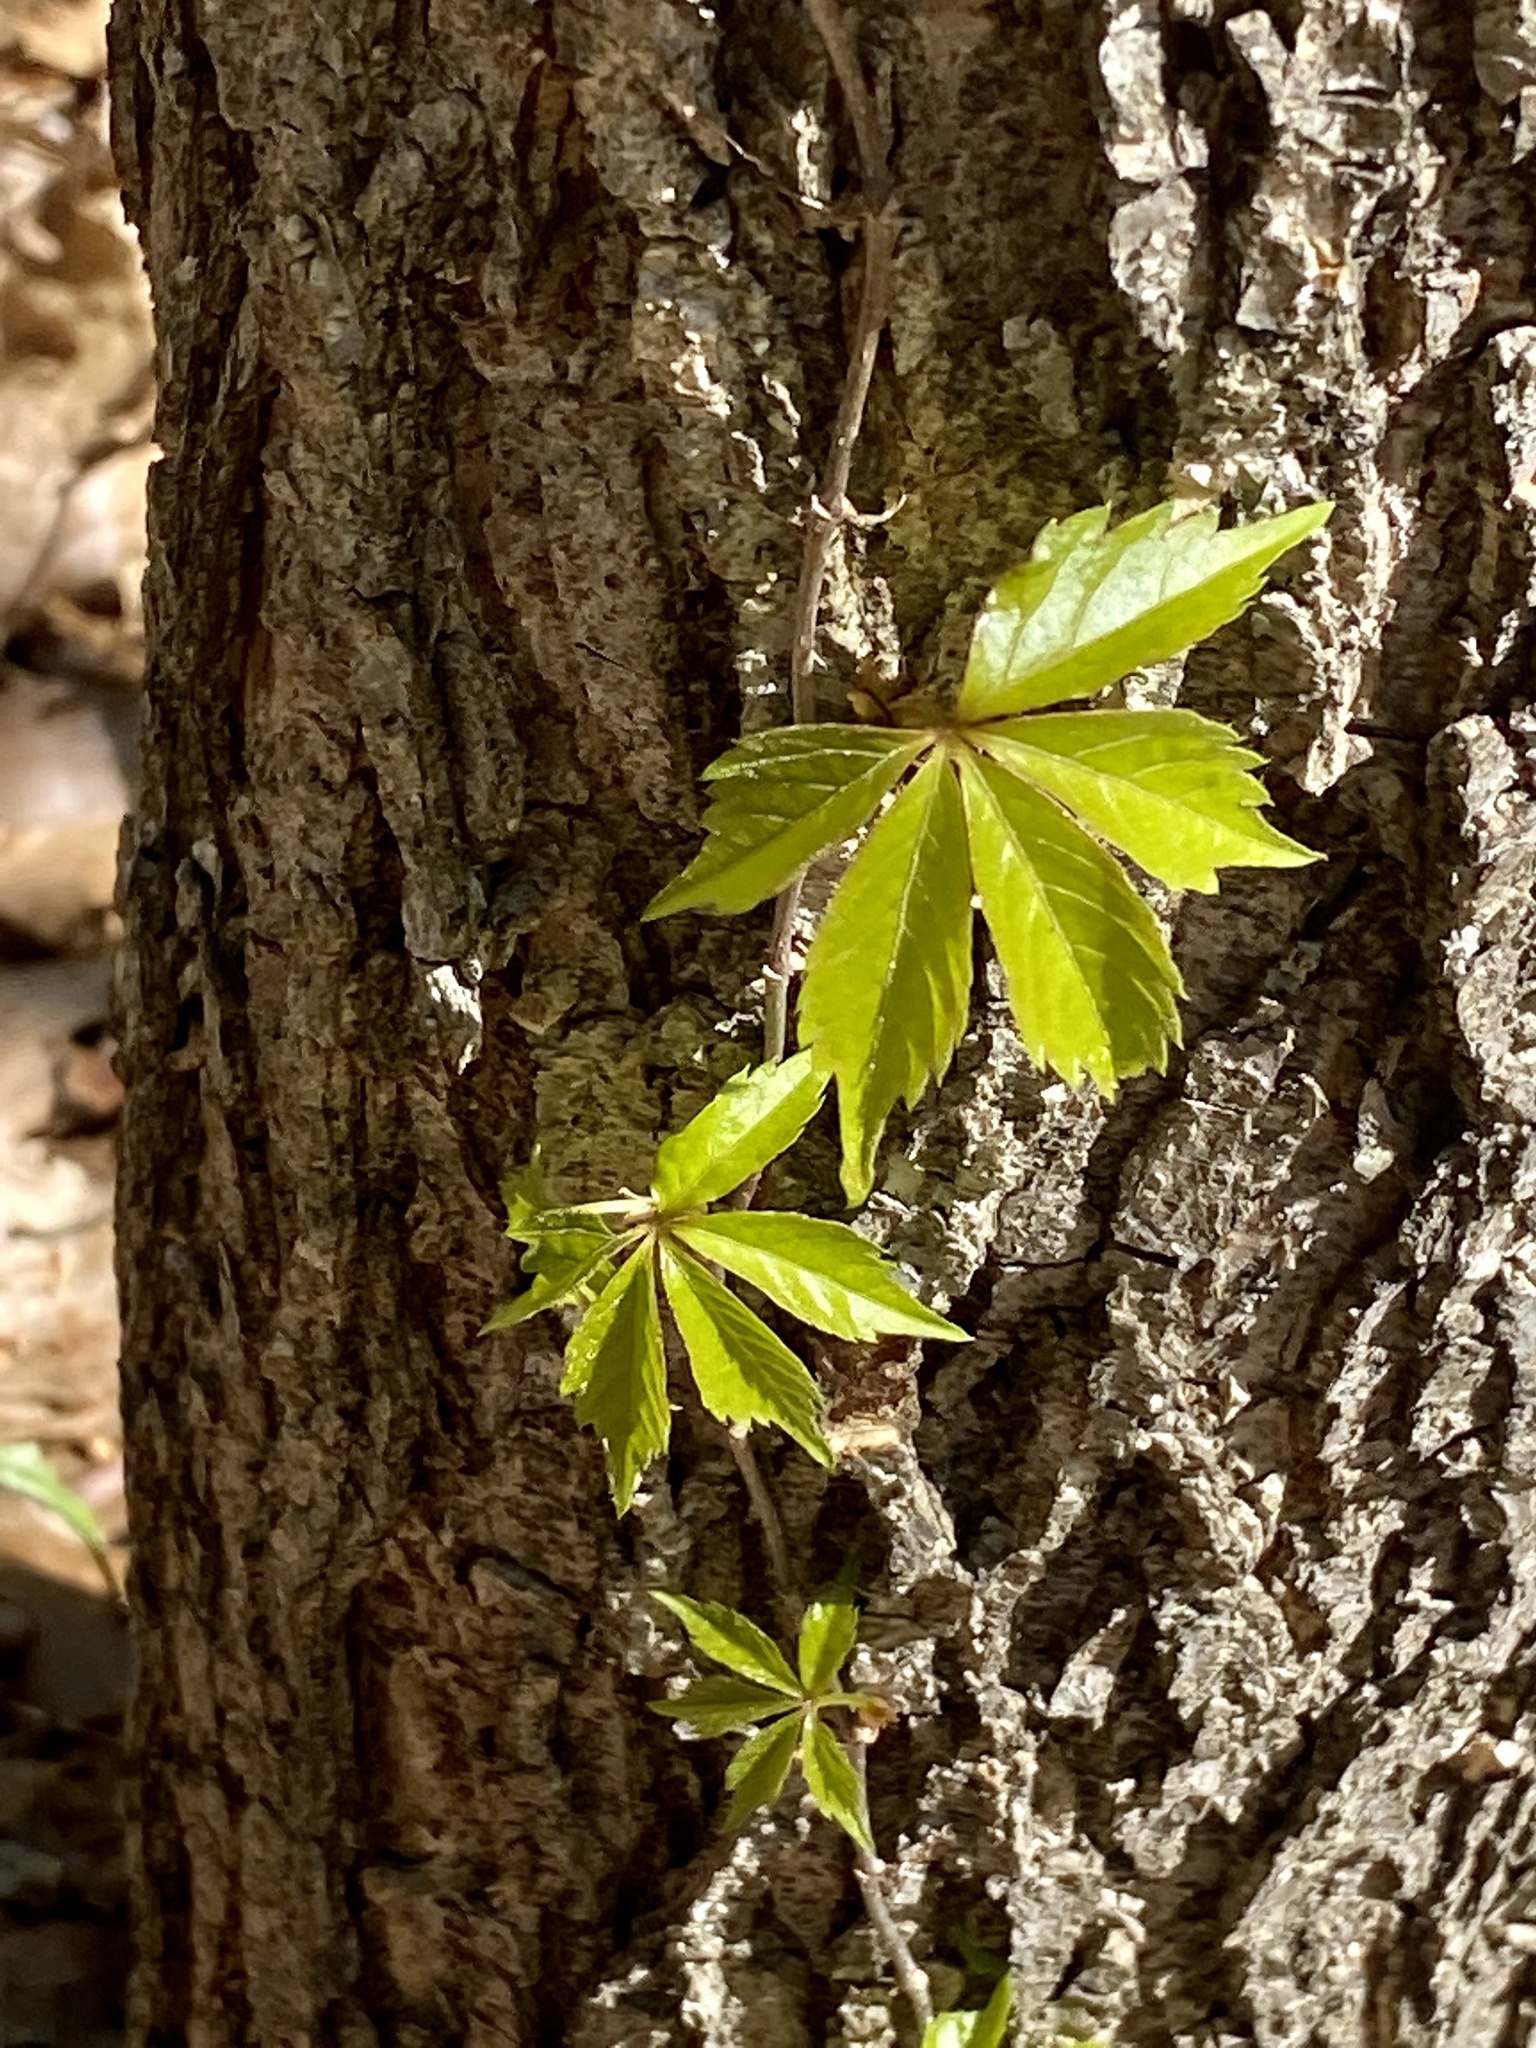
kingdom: Plantae
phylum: Tracheophyta
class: Magnoliopsida
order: Vitales
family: Vitaceae
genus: Parthenocissus
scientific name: Parthenocissus quinquefolia
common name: Virginia-creeper
